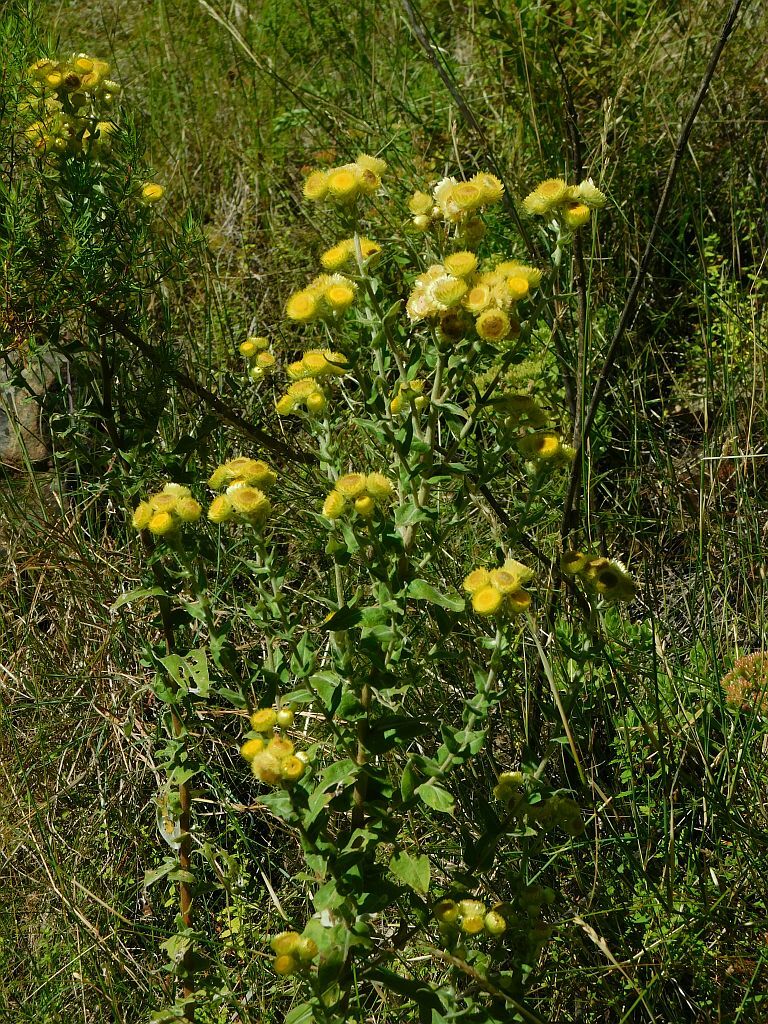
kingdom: Plantae
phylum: Tracheophyta
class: Magnoliopsida
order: Asterales
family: Asteraceae
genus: Helichrysum
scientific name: Helichrysum foetidum
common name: Stinking everlasting
